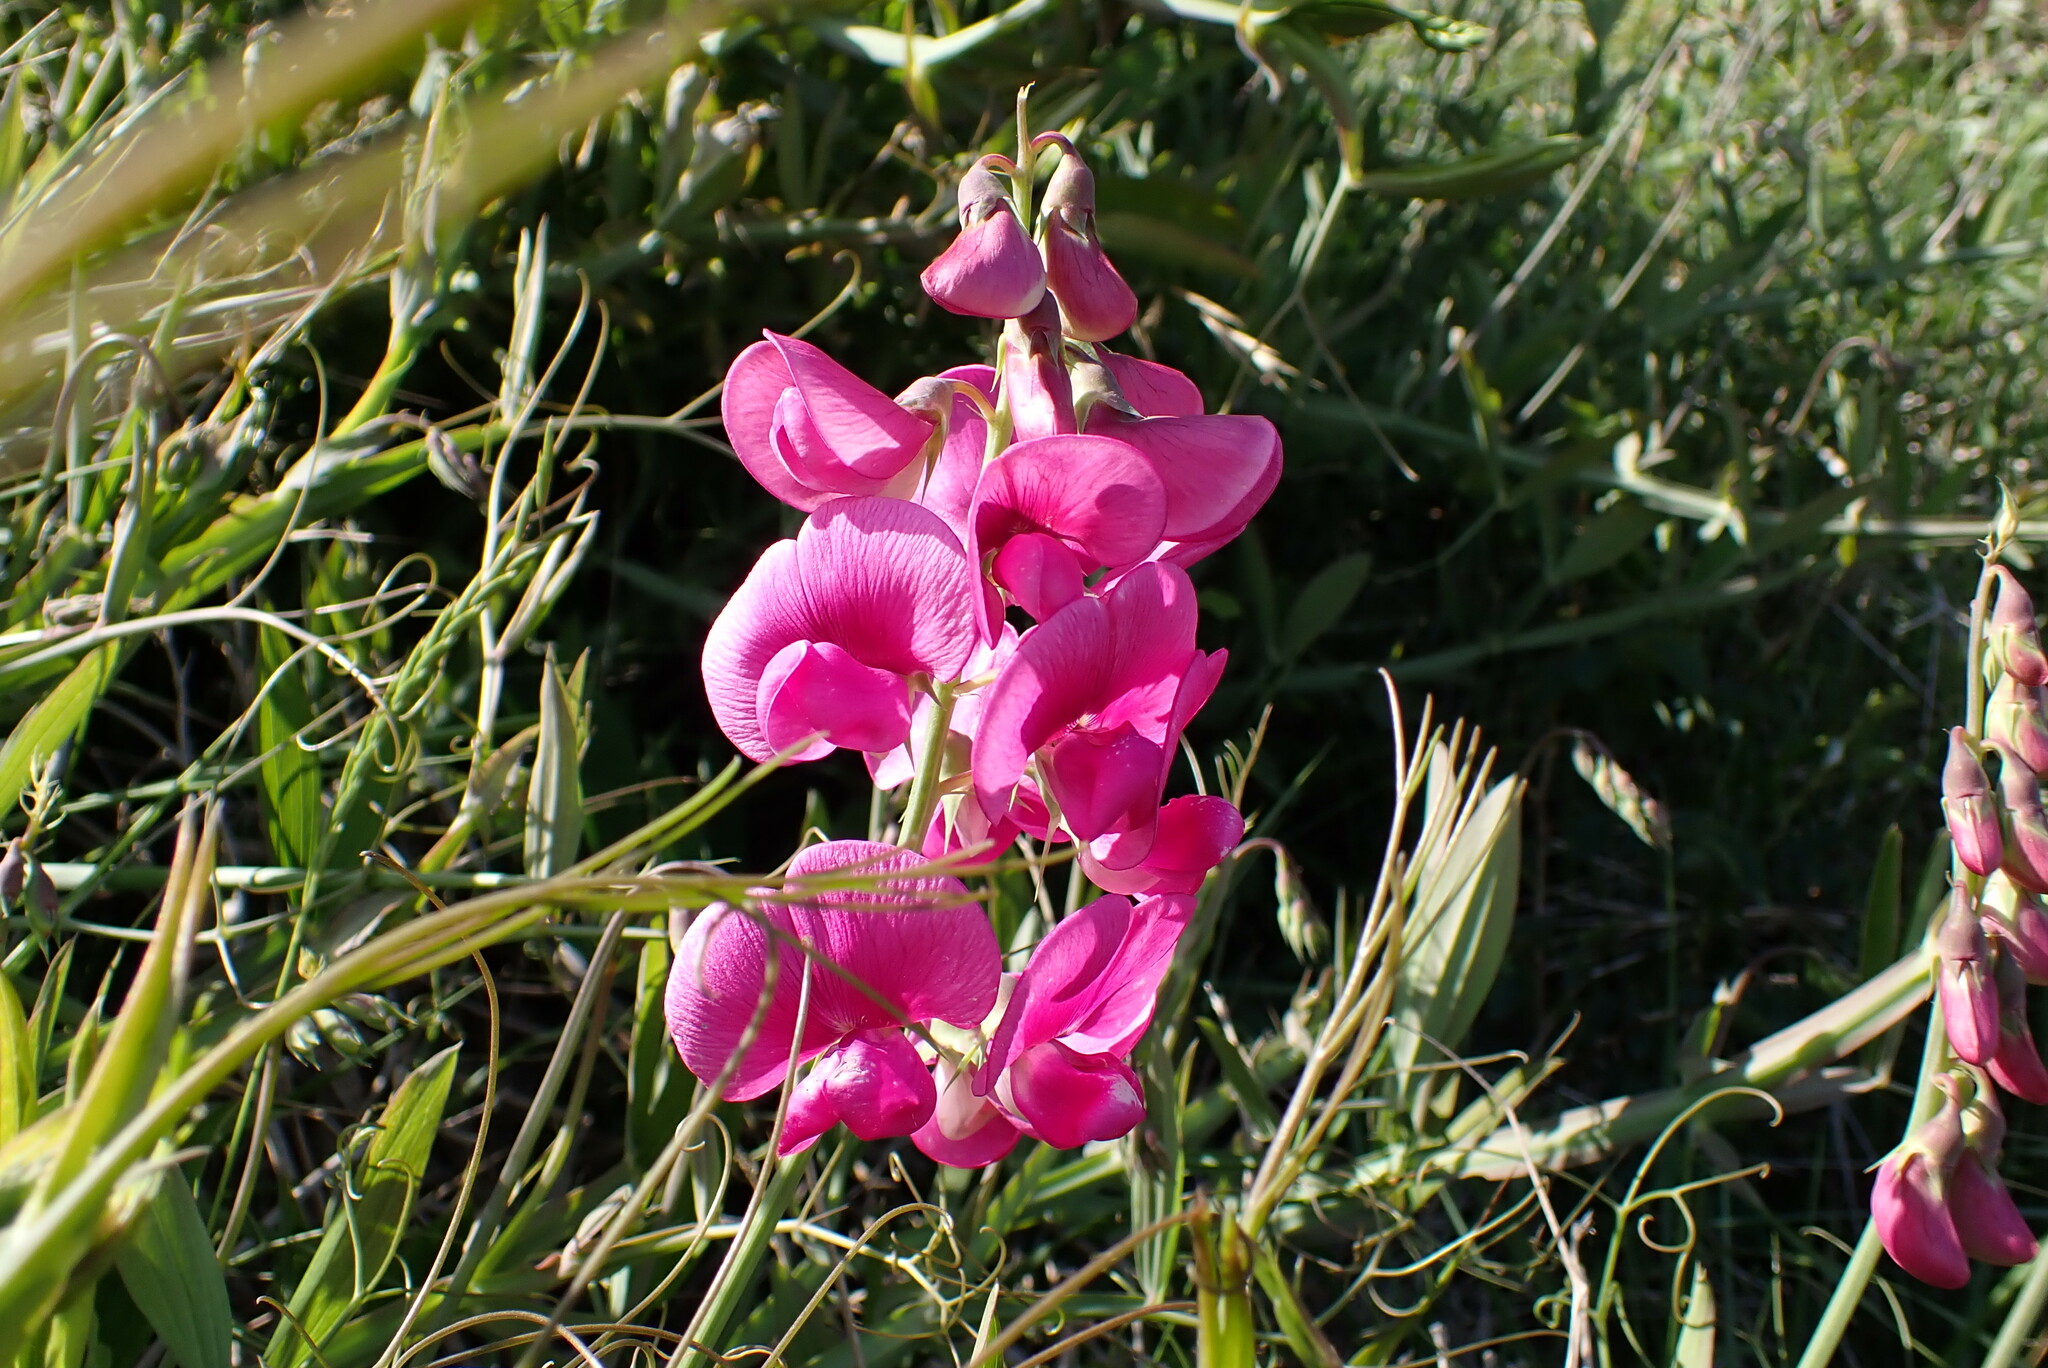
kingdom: Plantae
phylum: Tracheophyta
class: Magnoliopsida
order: Fabales
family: Fabaceae
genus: Lathyrus
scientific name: Lathyrus latifolius
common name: Perennial pea
